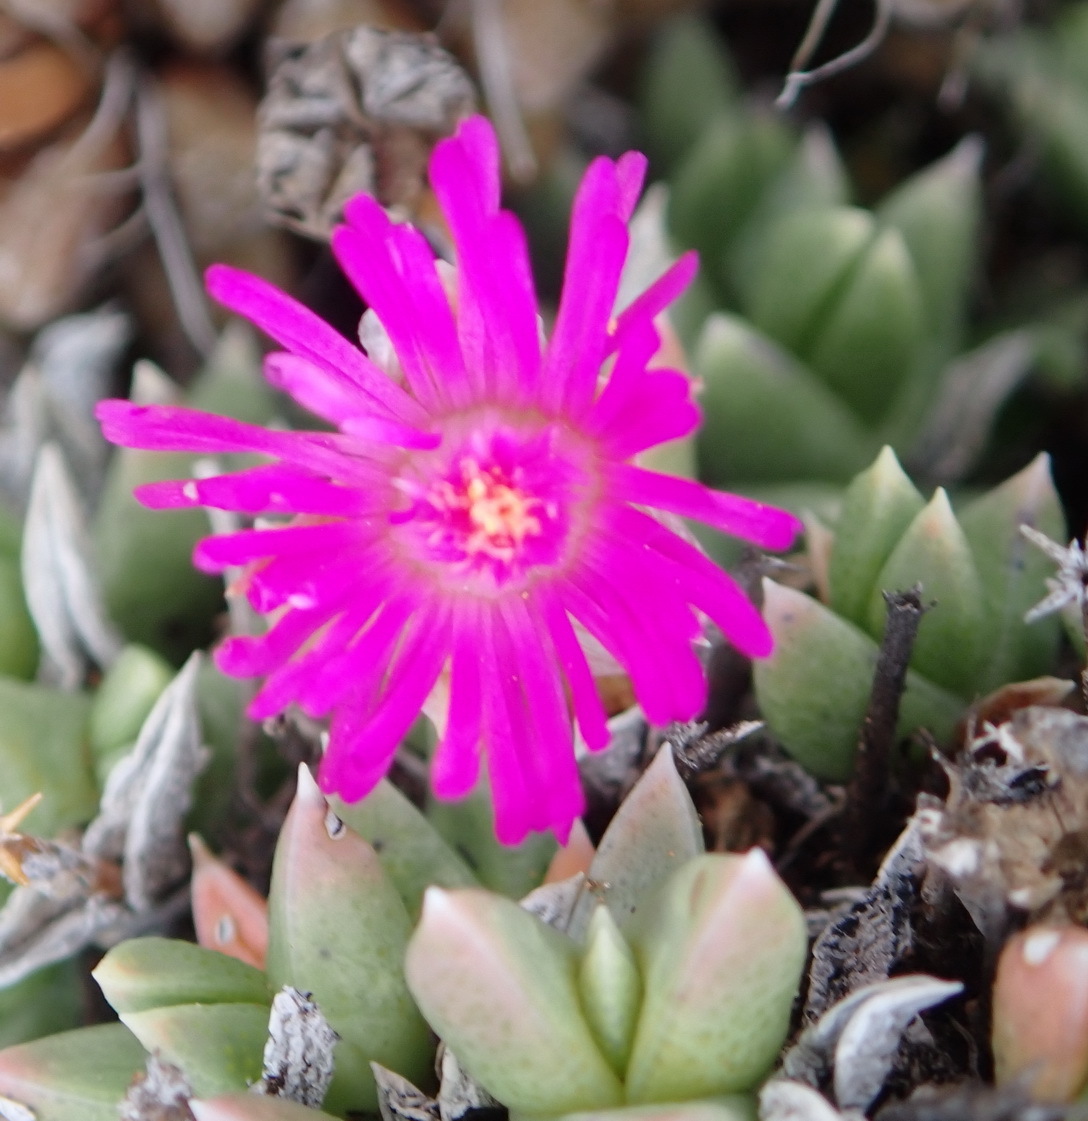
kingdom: Plantae
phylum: Tracheophyta
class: Magnoliopsida
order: Caryophyllales
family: Aizoaceae
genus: Ruschia
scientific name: Ruschia rigens
